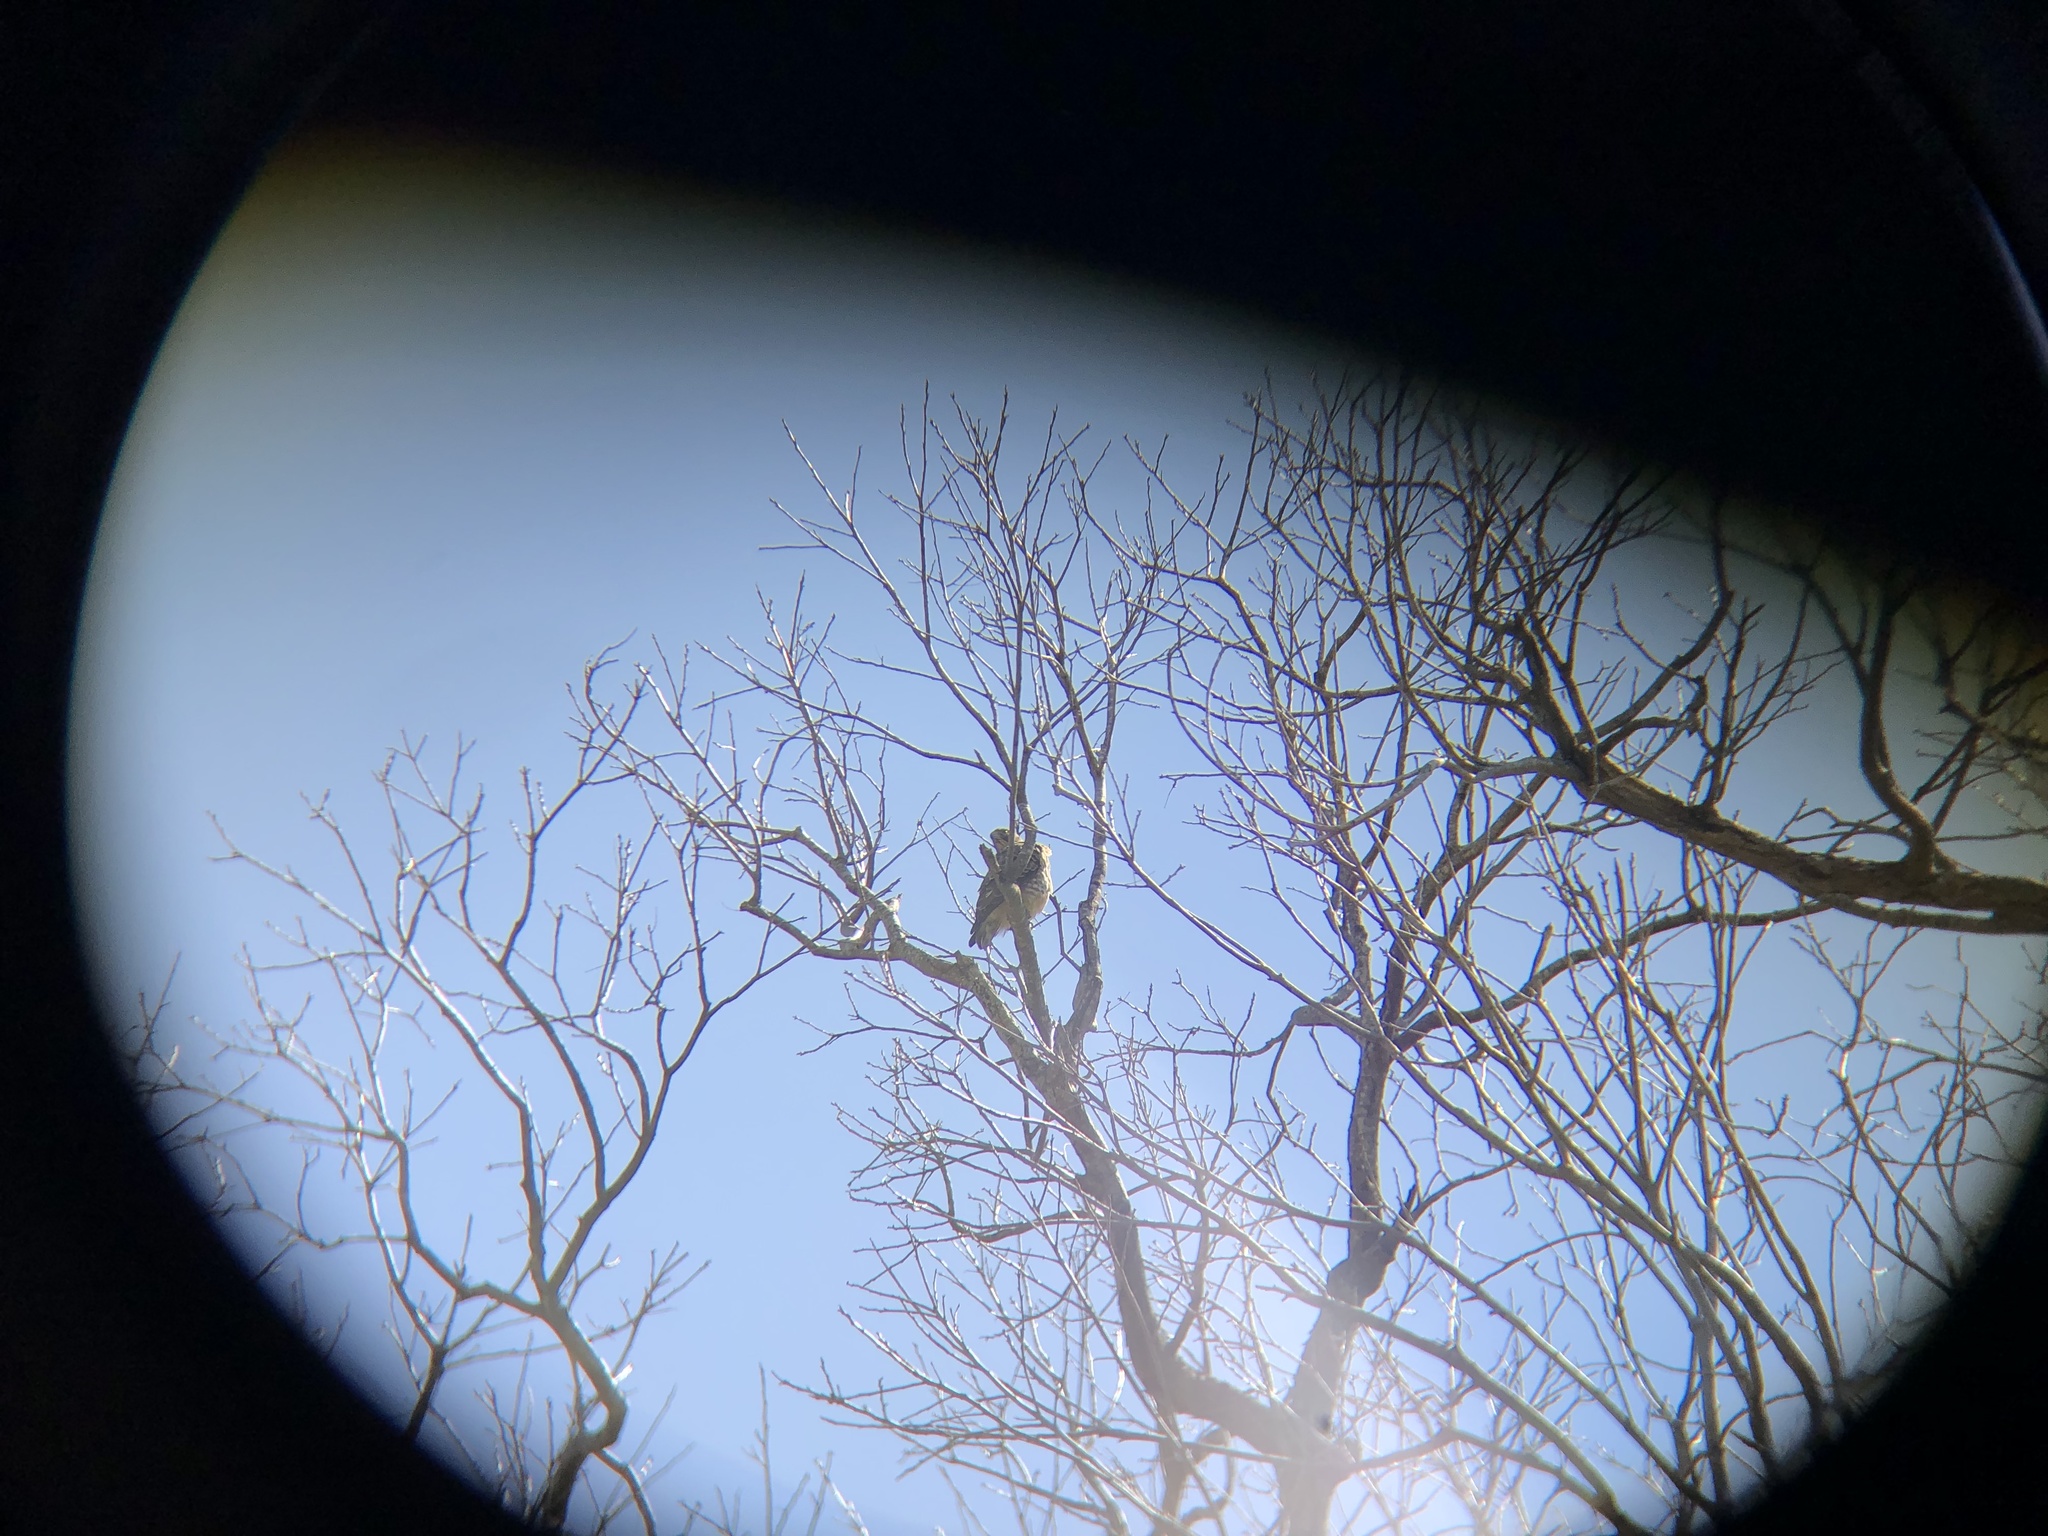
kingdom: Animalia
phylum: Chordata
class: Aves
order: Accipitriformes
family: Accipitridae
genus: Buteo
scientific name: Buteo platypterus
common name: Broad-winged hawk
